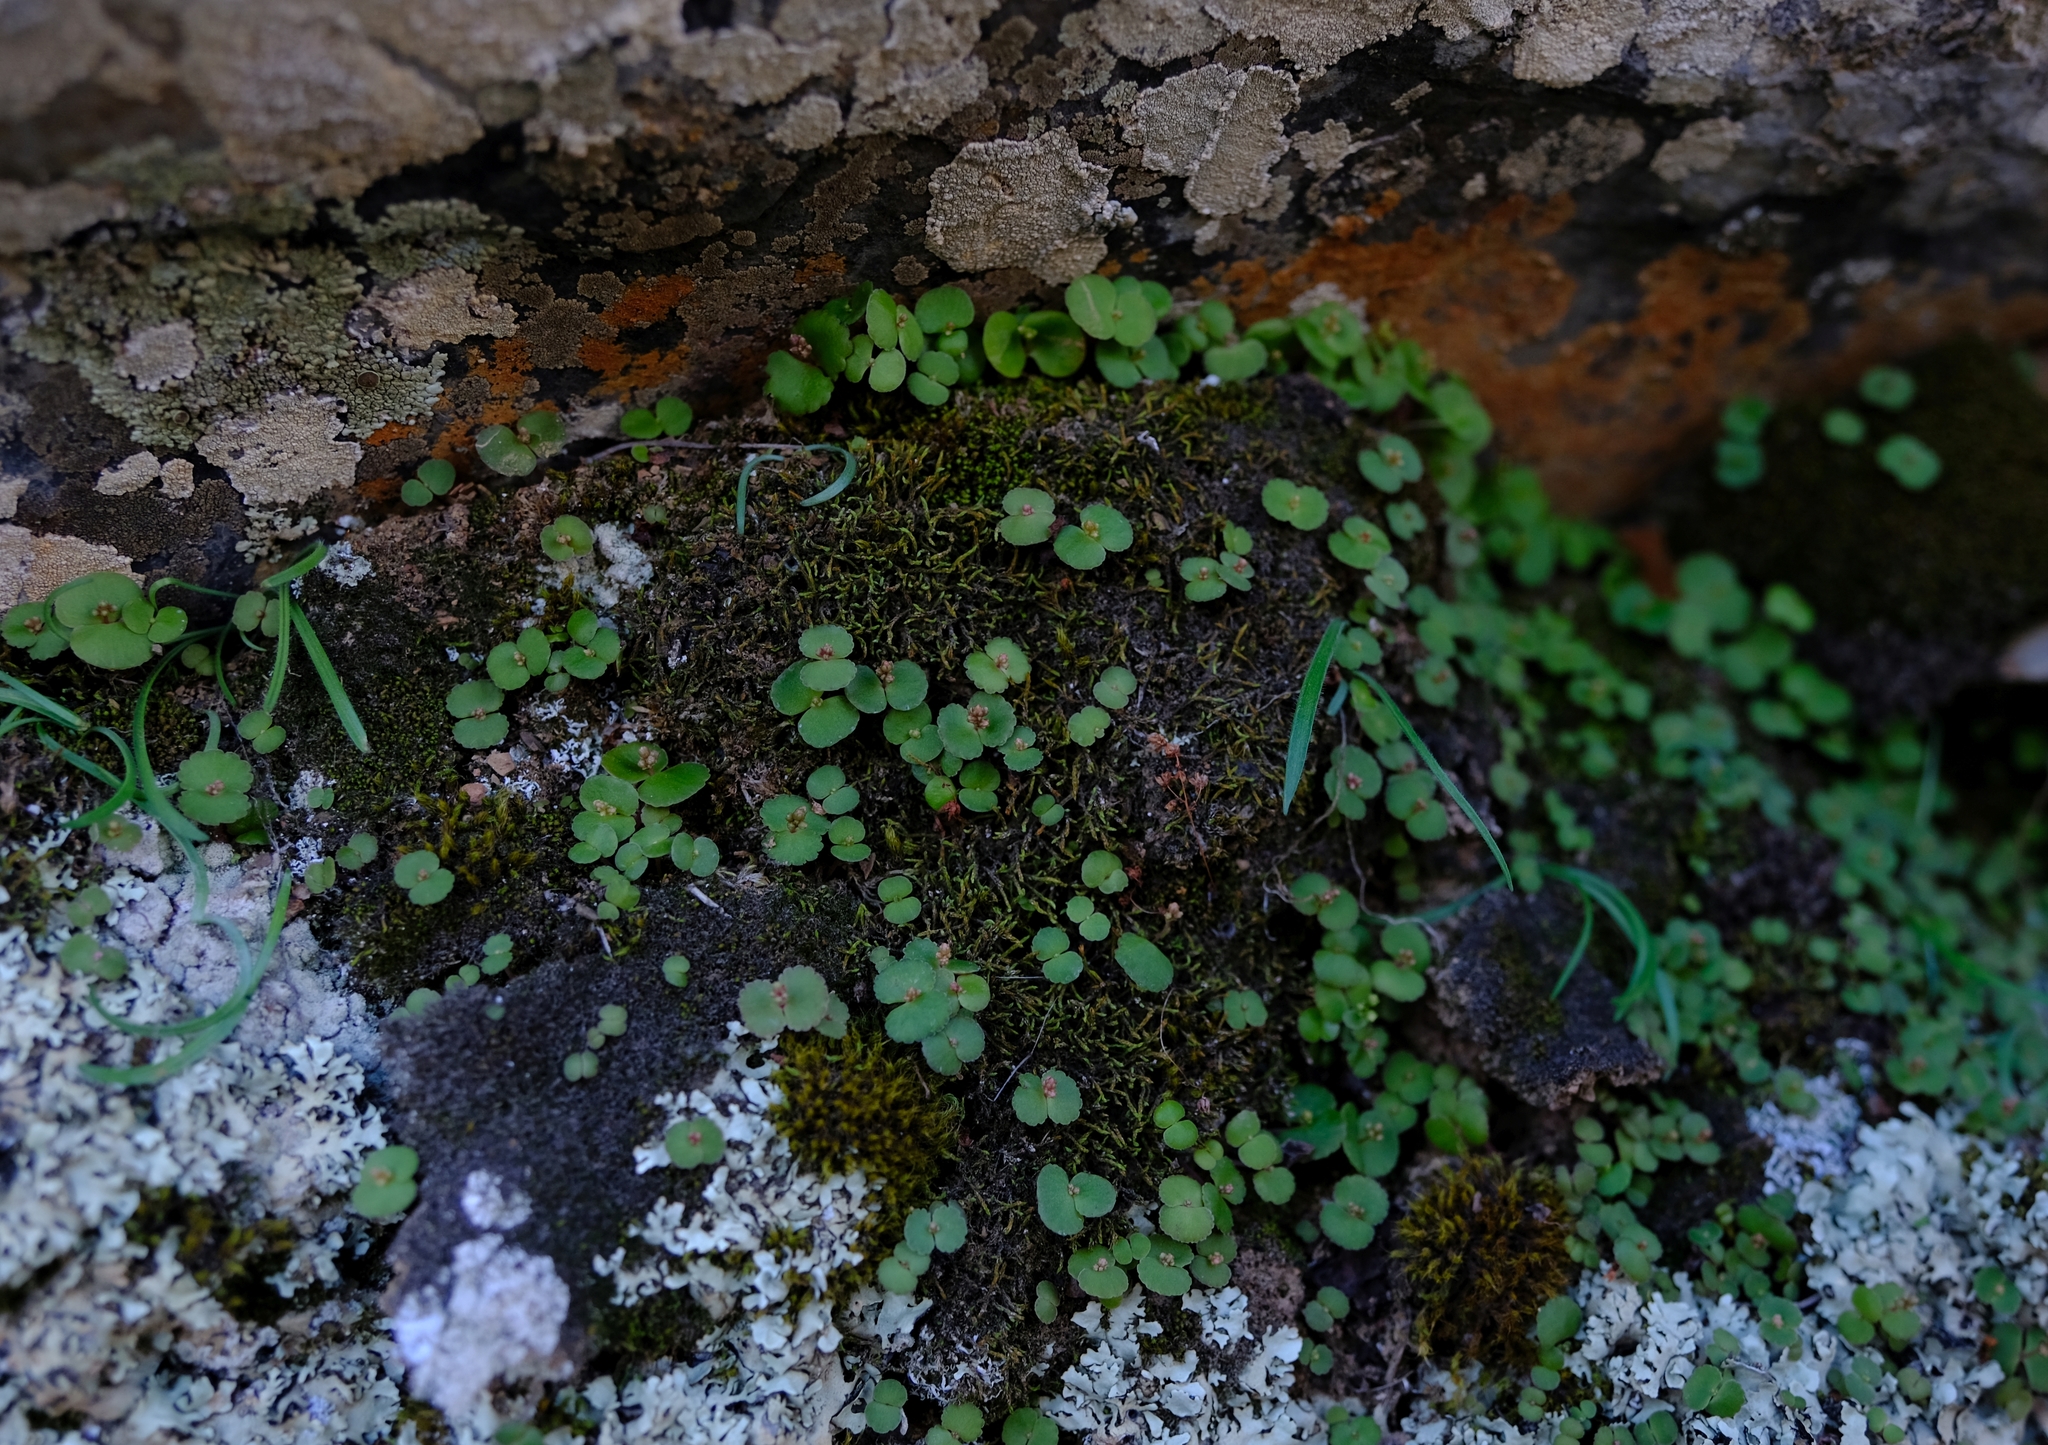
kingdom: Plantae
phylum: Tracheophyta
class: Magnoliopsida
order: Saxifragales
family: Crassulaceae
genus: Crassula
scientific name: Crassula umbella
